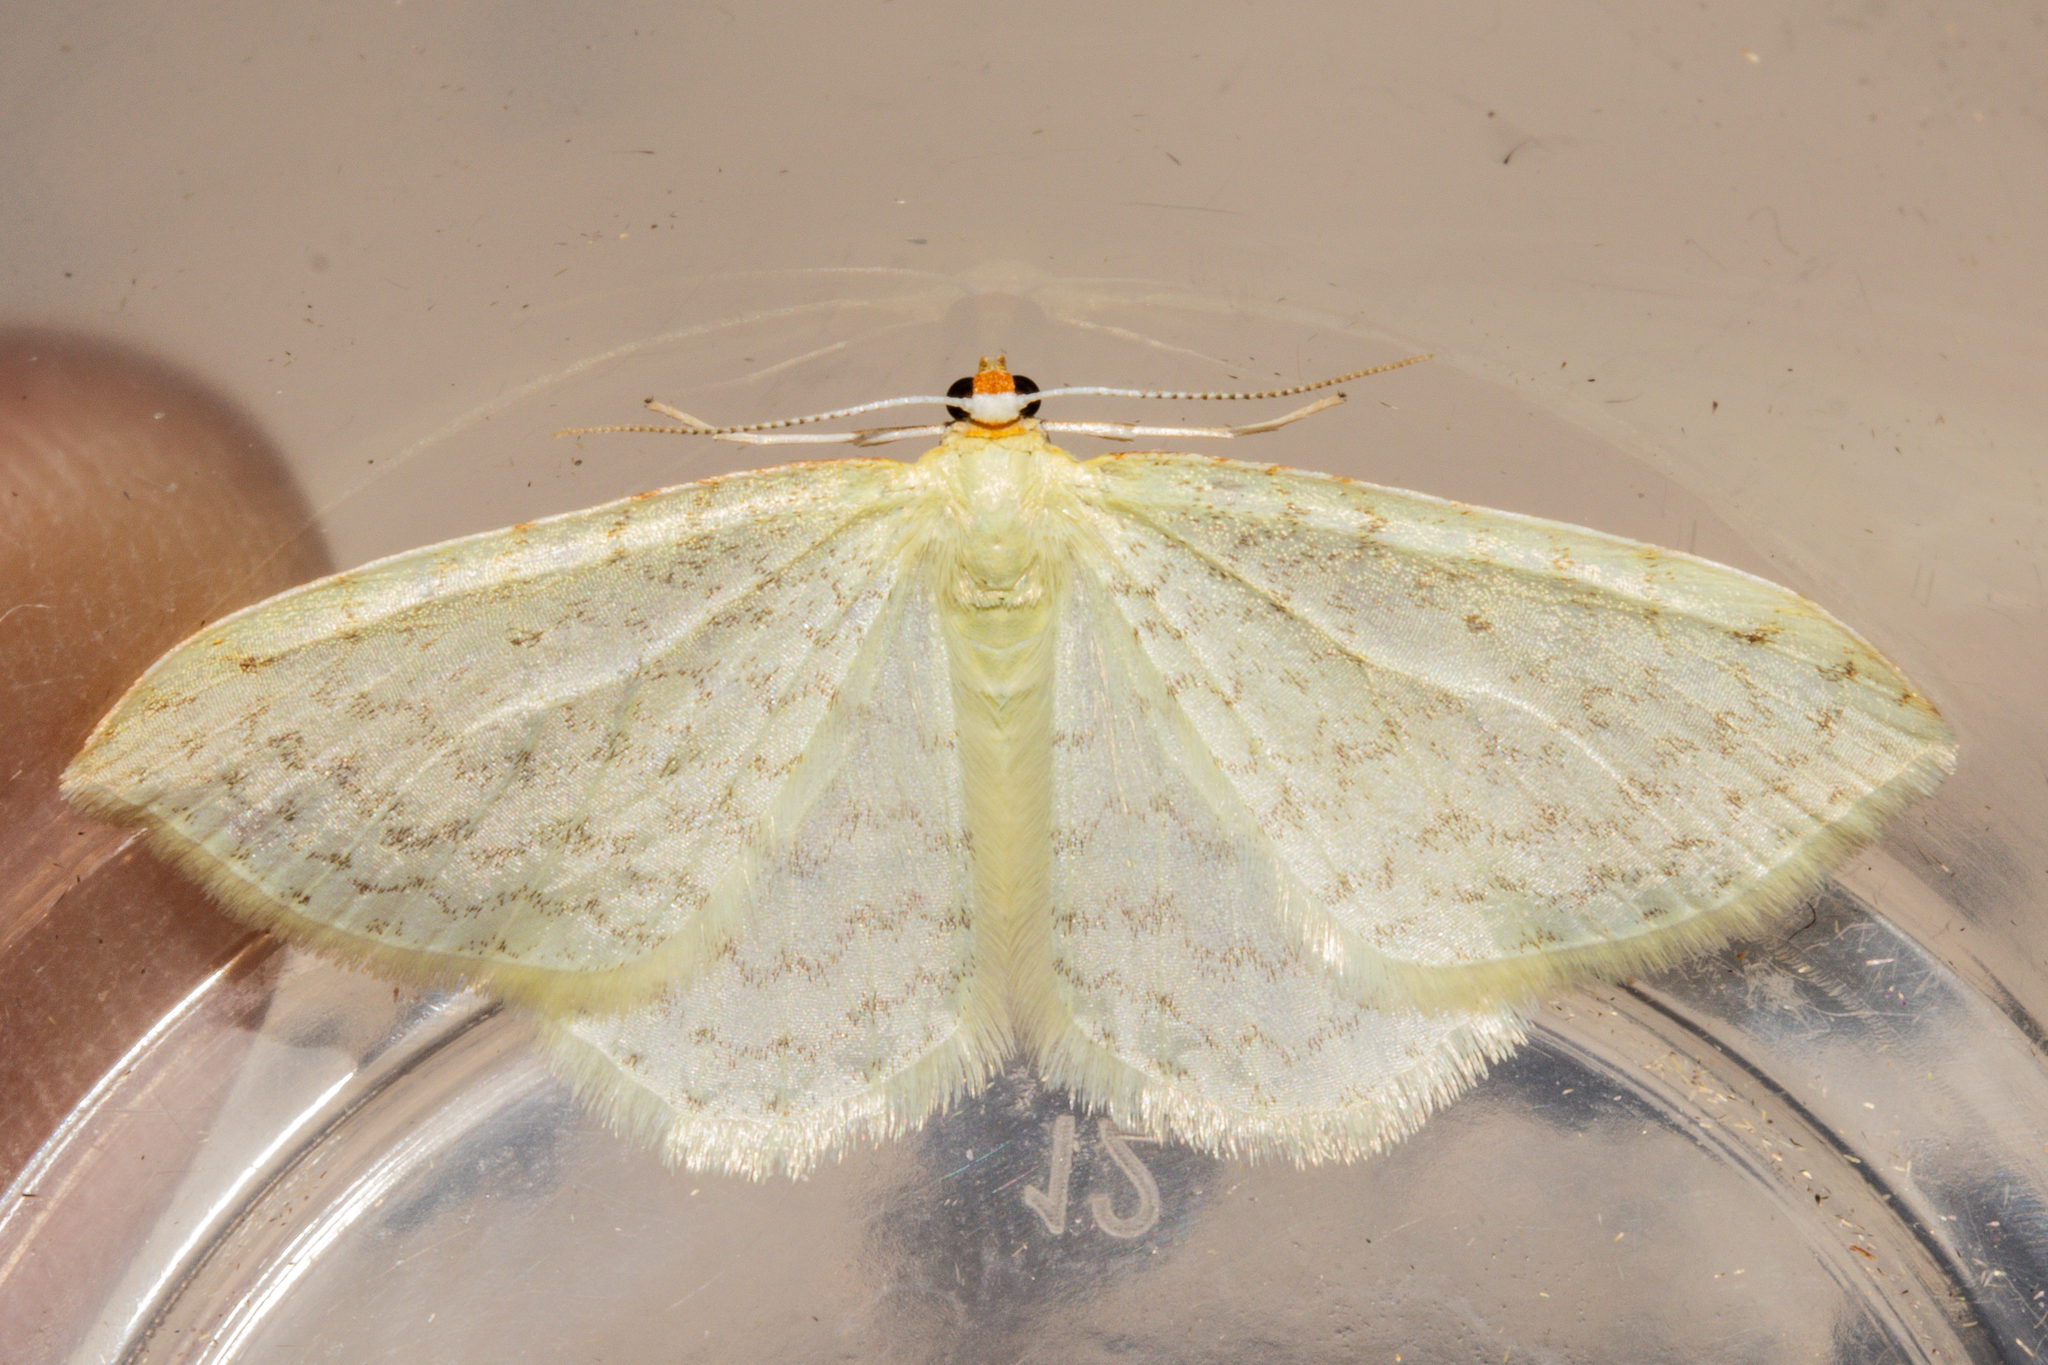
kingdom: Animalia
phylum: Arthropoda
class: Insecta
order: Lepidoptera
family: Geometridae
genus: Epiphryne
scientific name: Epiphryne undosata
